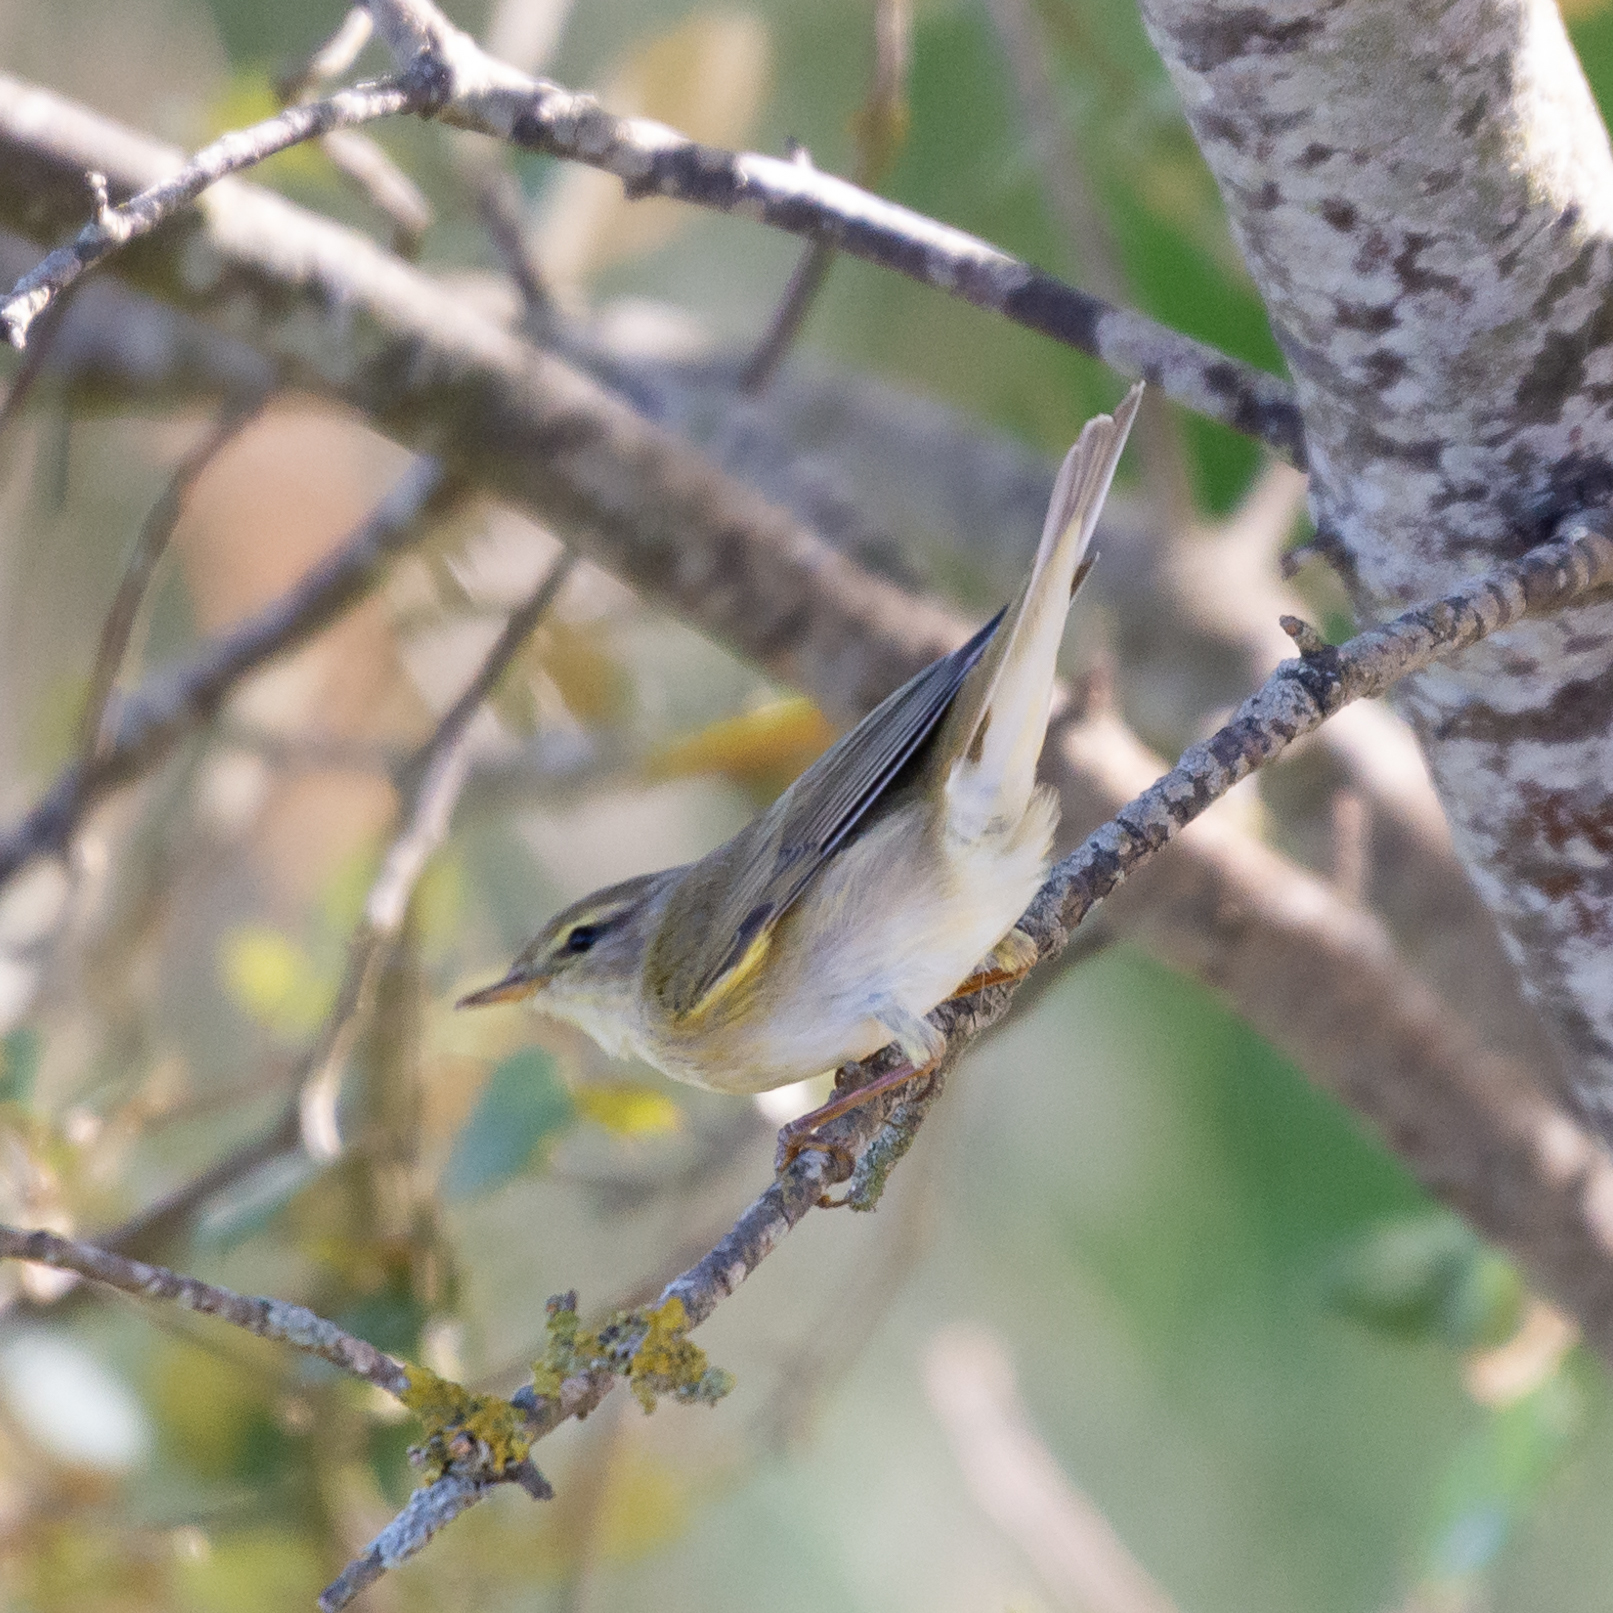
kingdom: Animalia
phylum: Chordata
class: Aves
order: Passeriformes
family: Phylloscopidae
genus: Phylloscopus
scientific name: Phylloscopus trochilus
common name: Willow warbler
